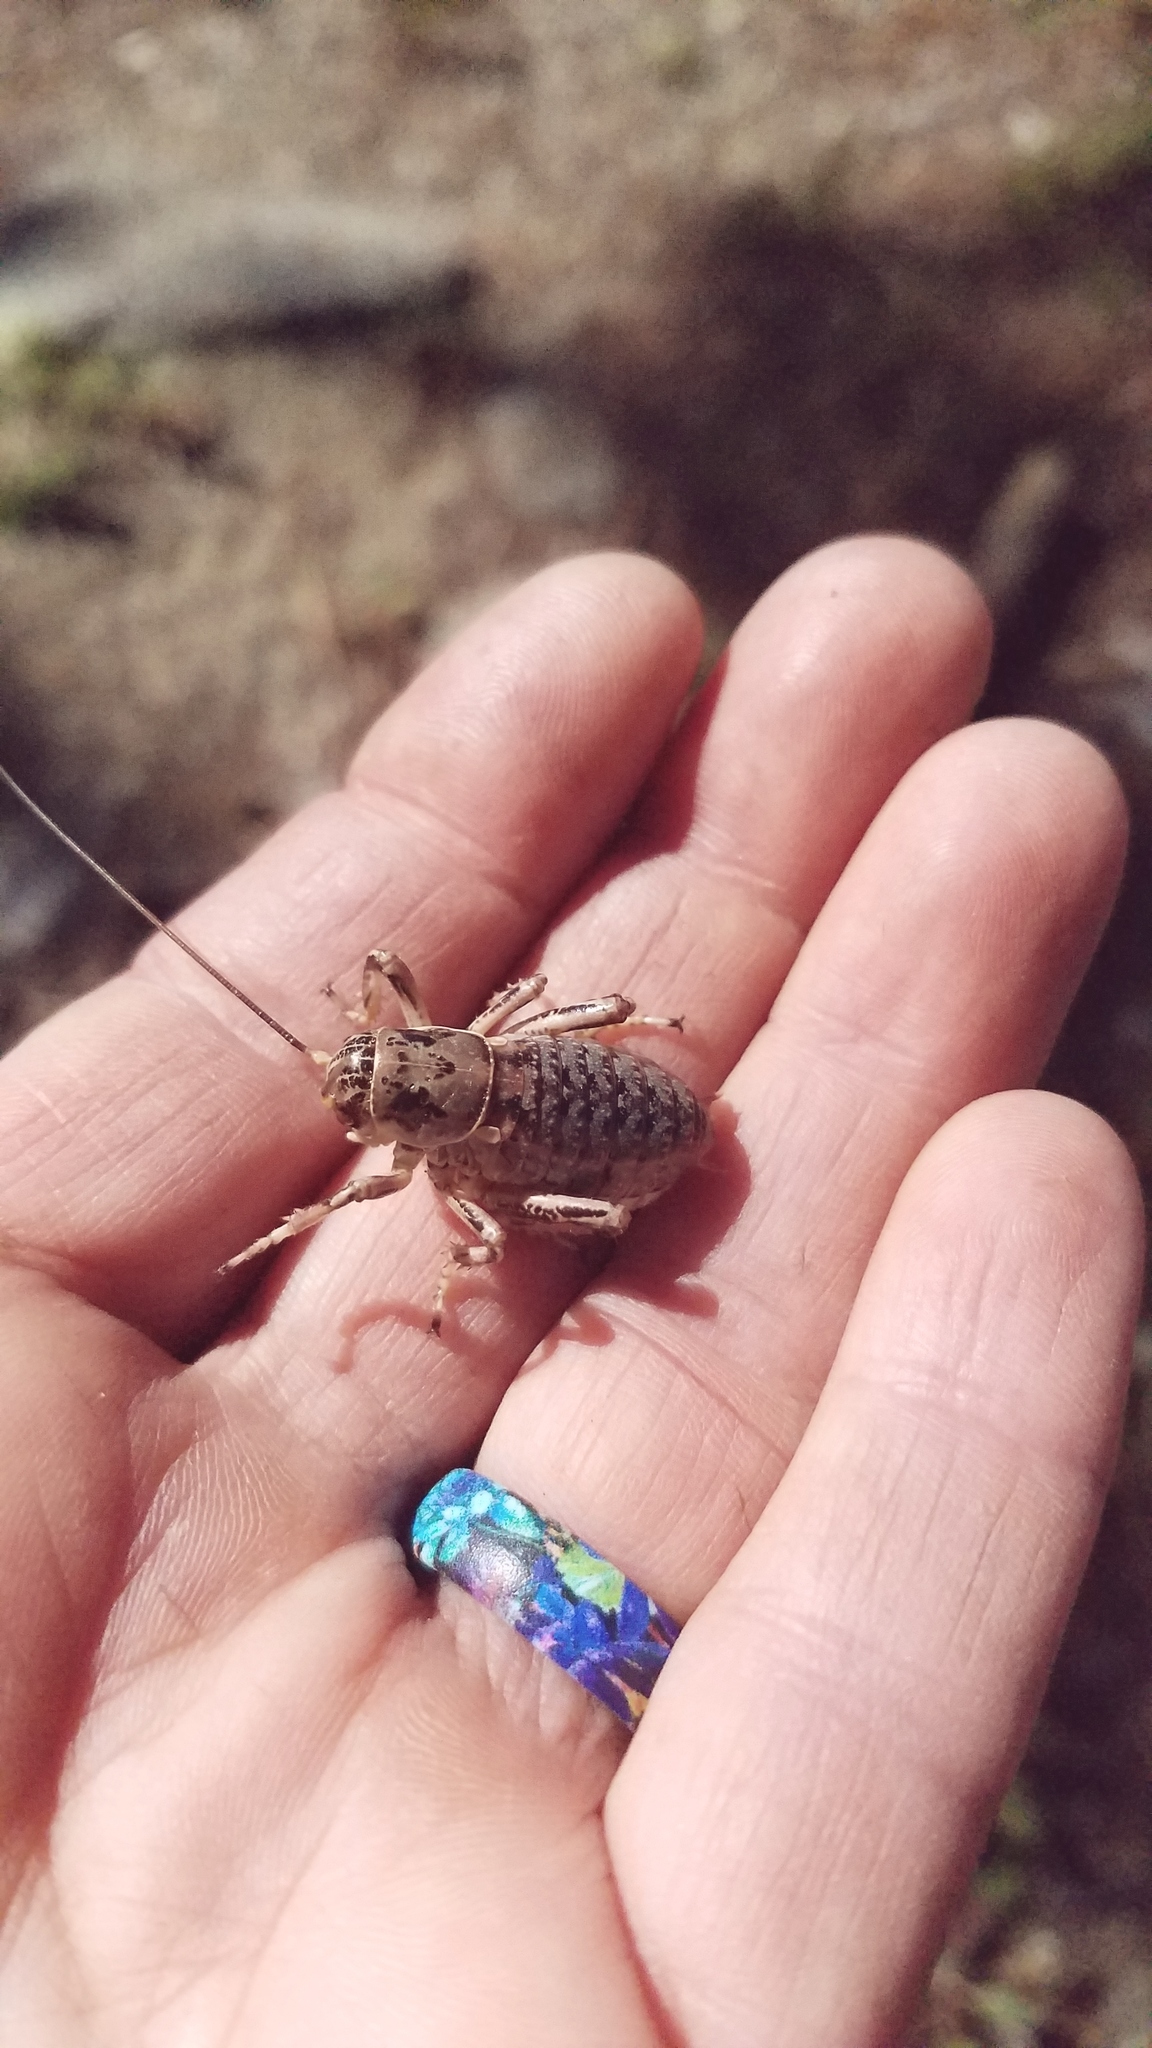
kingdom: Animalia
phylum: Arthropoda
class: Insecta
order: Orthoptera
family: Prophalangopsidae
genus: Cyphoderris
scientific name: Cyphoderris monstrosa
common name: Great grig
